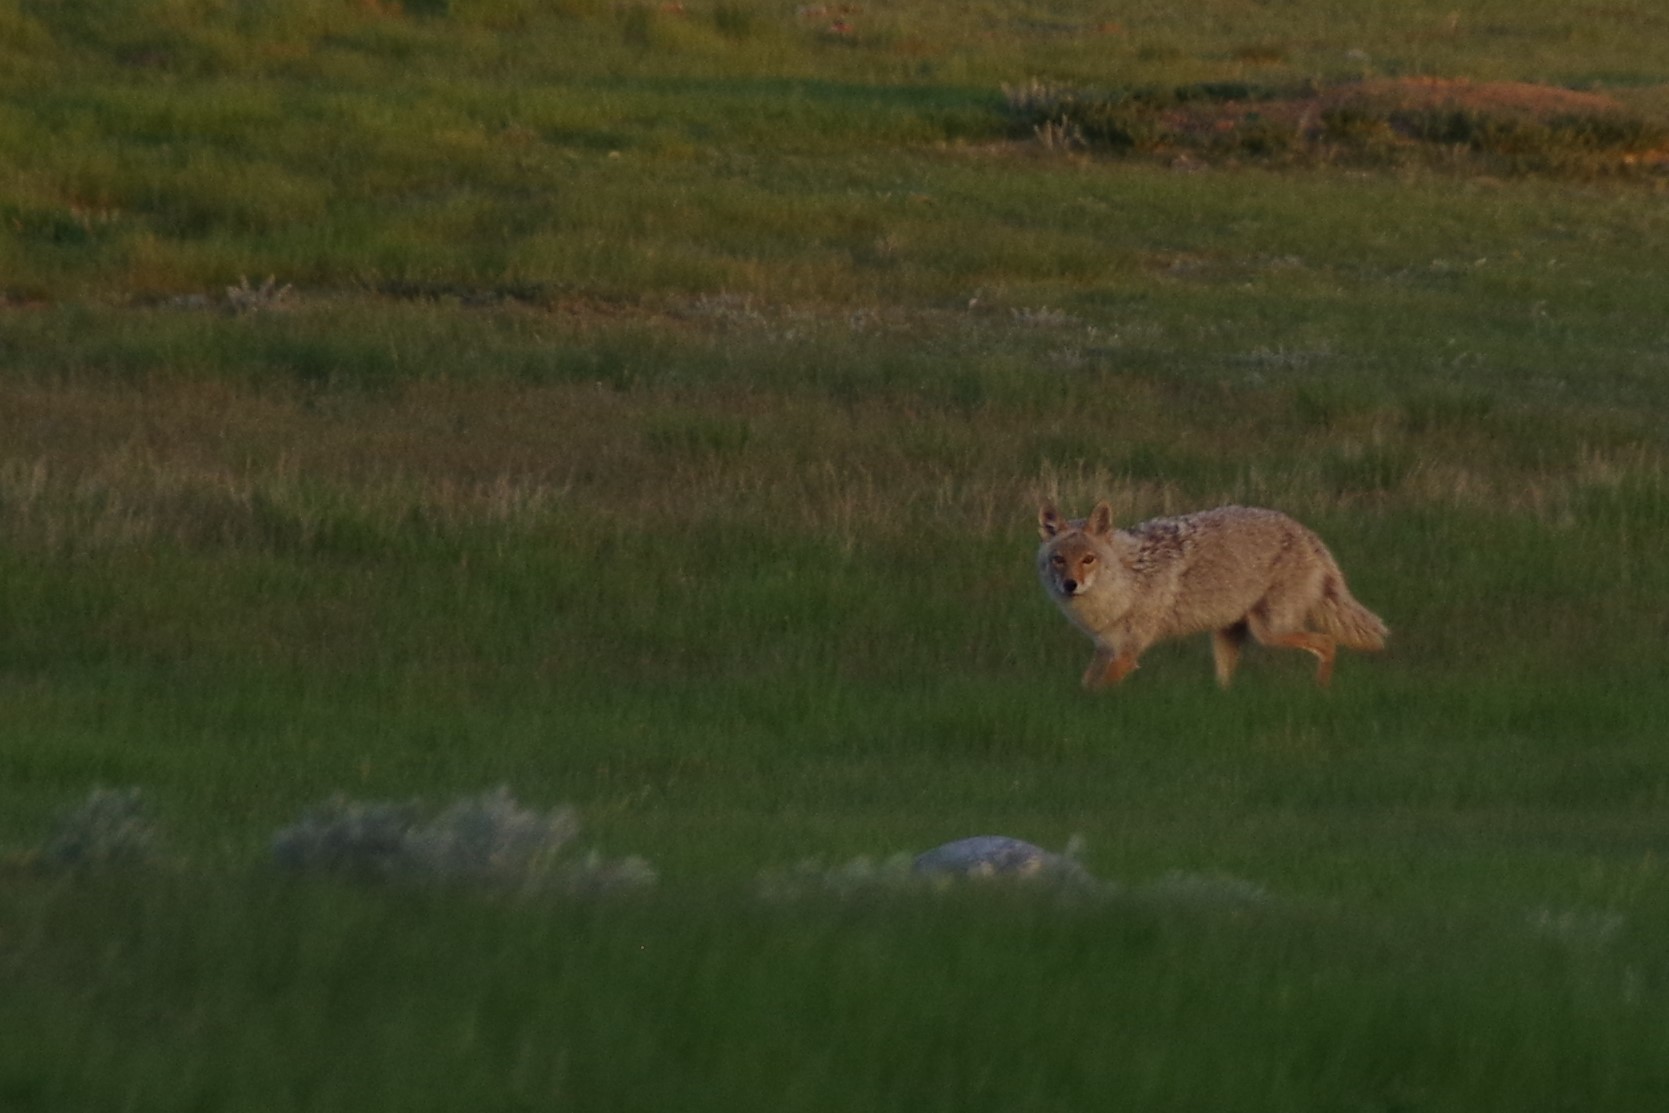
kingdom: Animalia
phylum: Chordata
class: Mammalia
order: Carnivora
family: Canidae
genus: Canis
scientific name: Canis latrans
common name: Coyote
